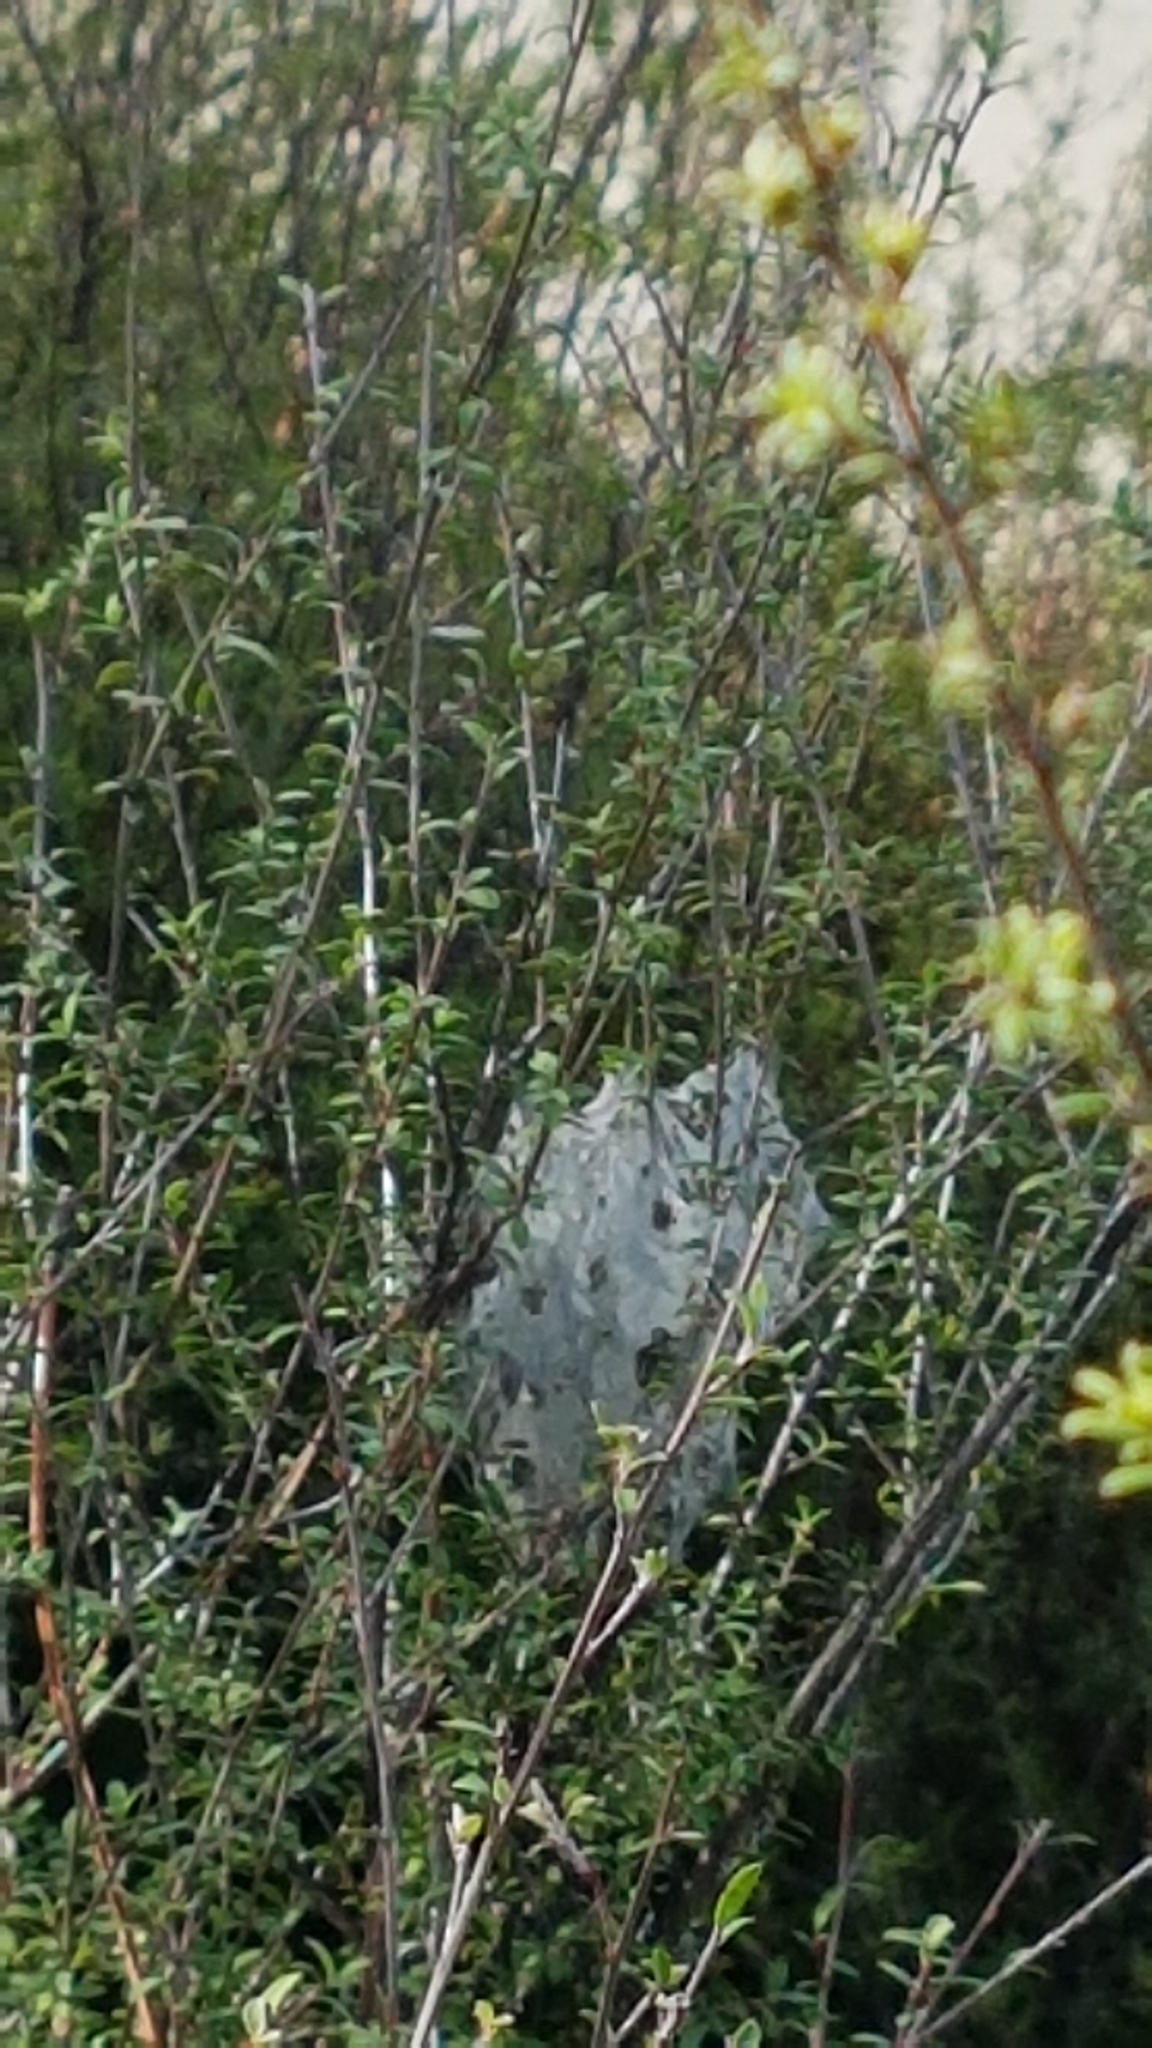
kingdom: Animalia
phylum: Arthropoda
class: Arachnida
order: Araneae
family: Pisauridae
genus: Dolomedes
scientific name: Dolomedes minor
